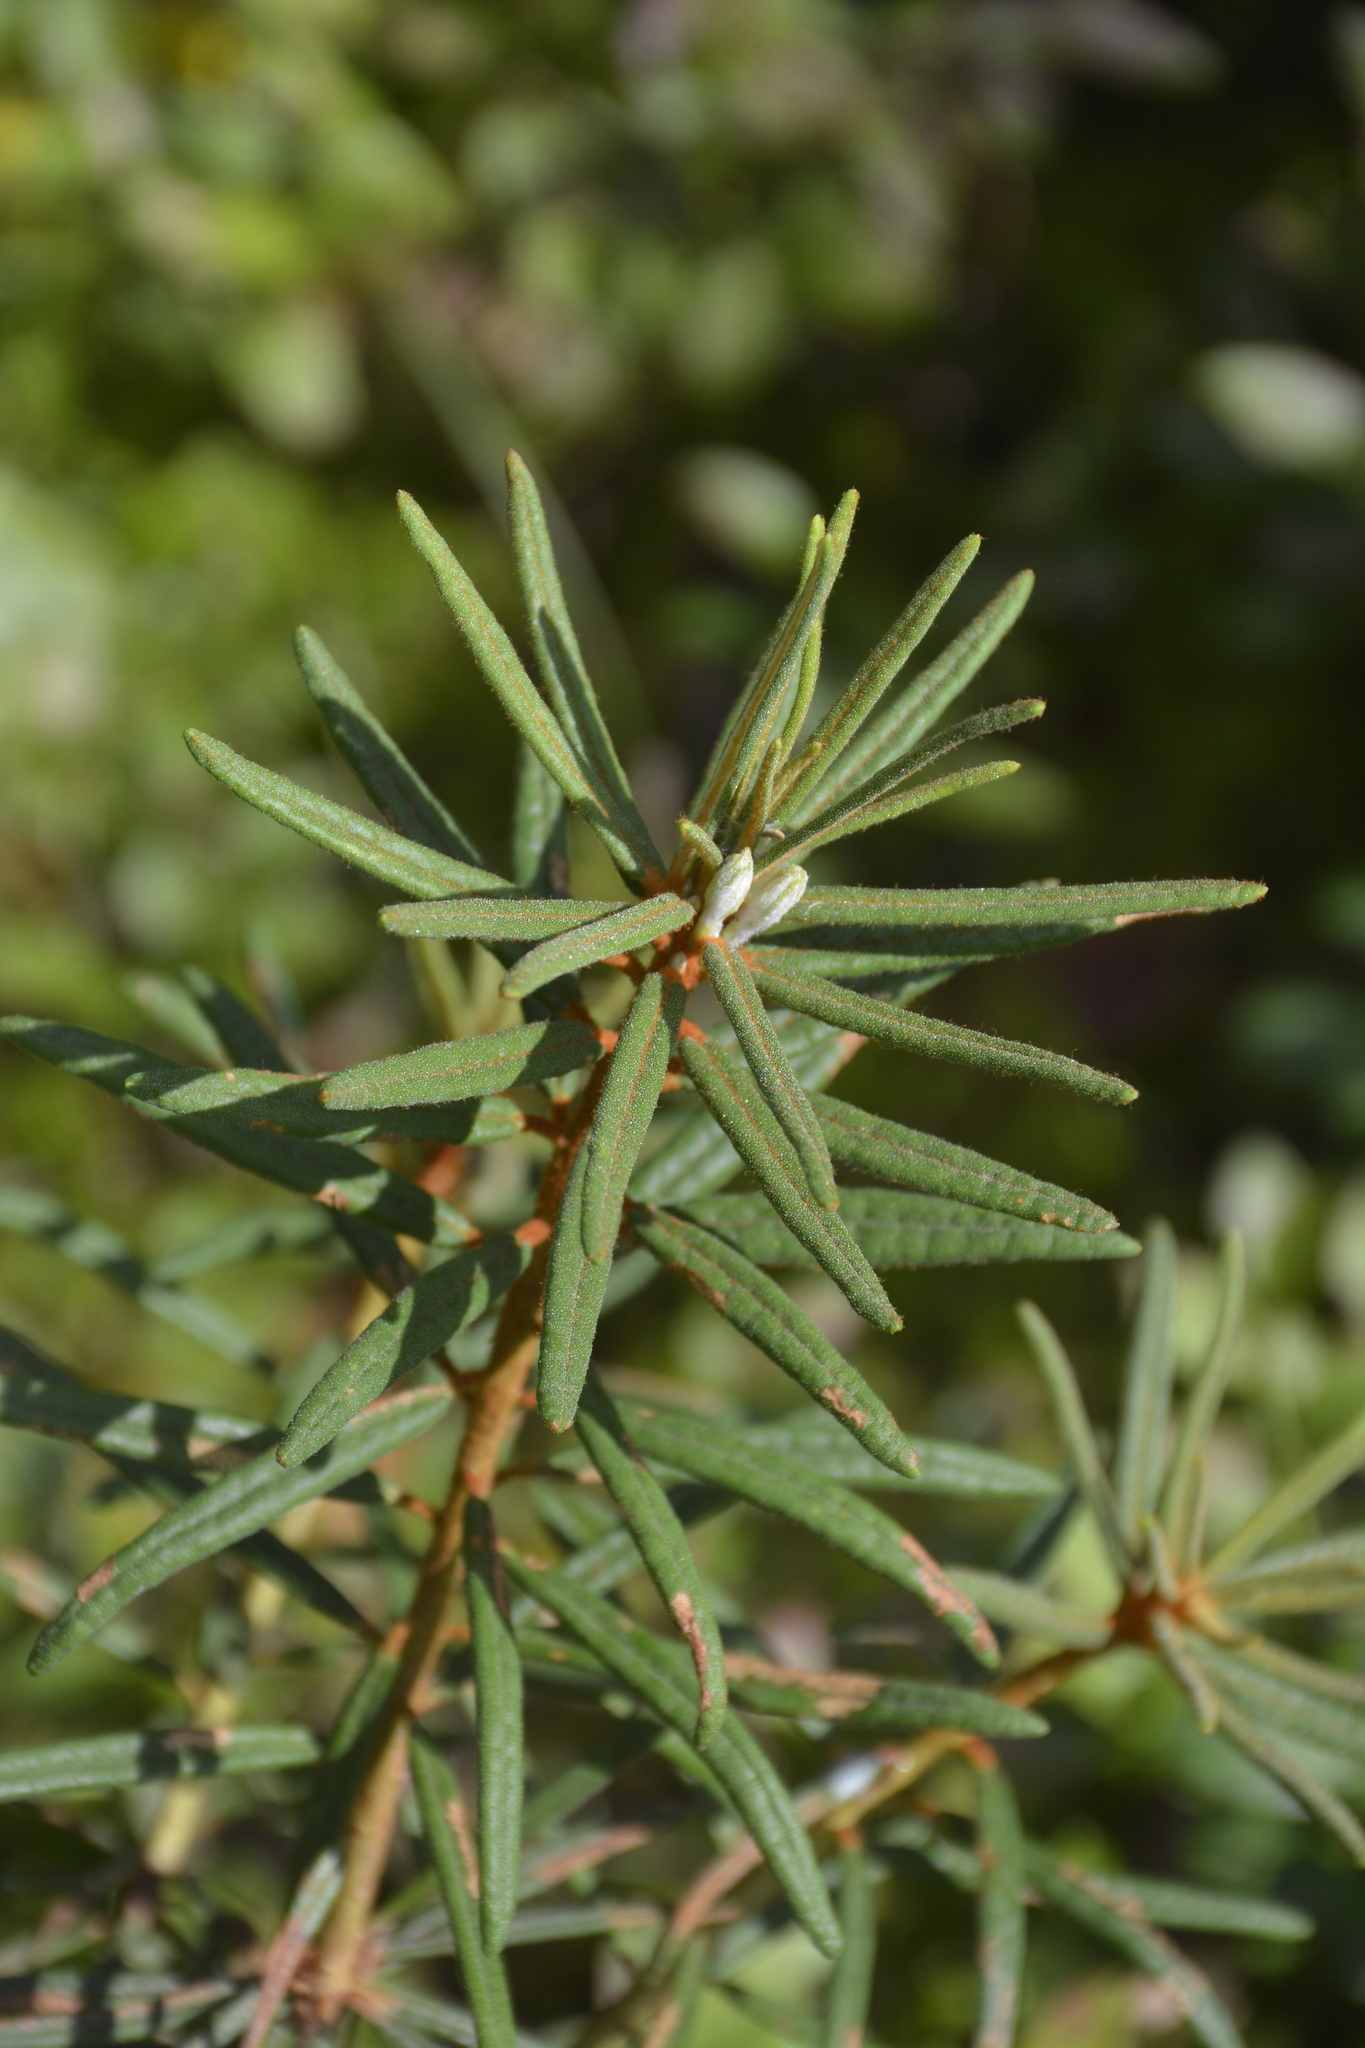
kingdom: Plantae
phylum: Tracheophyta
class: Magnoliopsida
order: Ericales
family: Ericaceae
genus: Rhododendron
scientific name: Rhododendron tomentosum
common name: Marsh labrador tea
